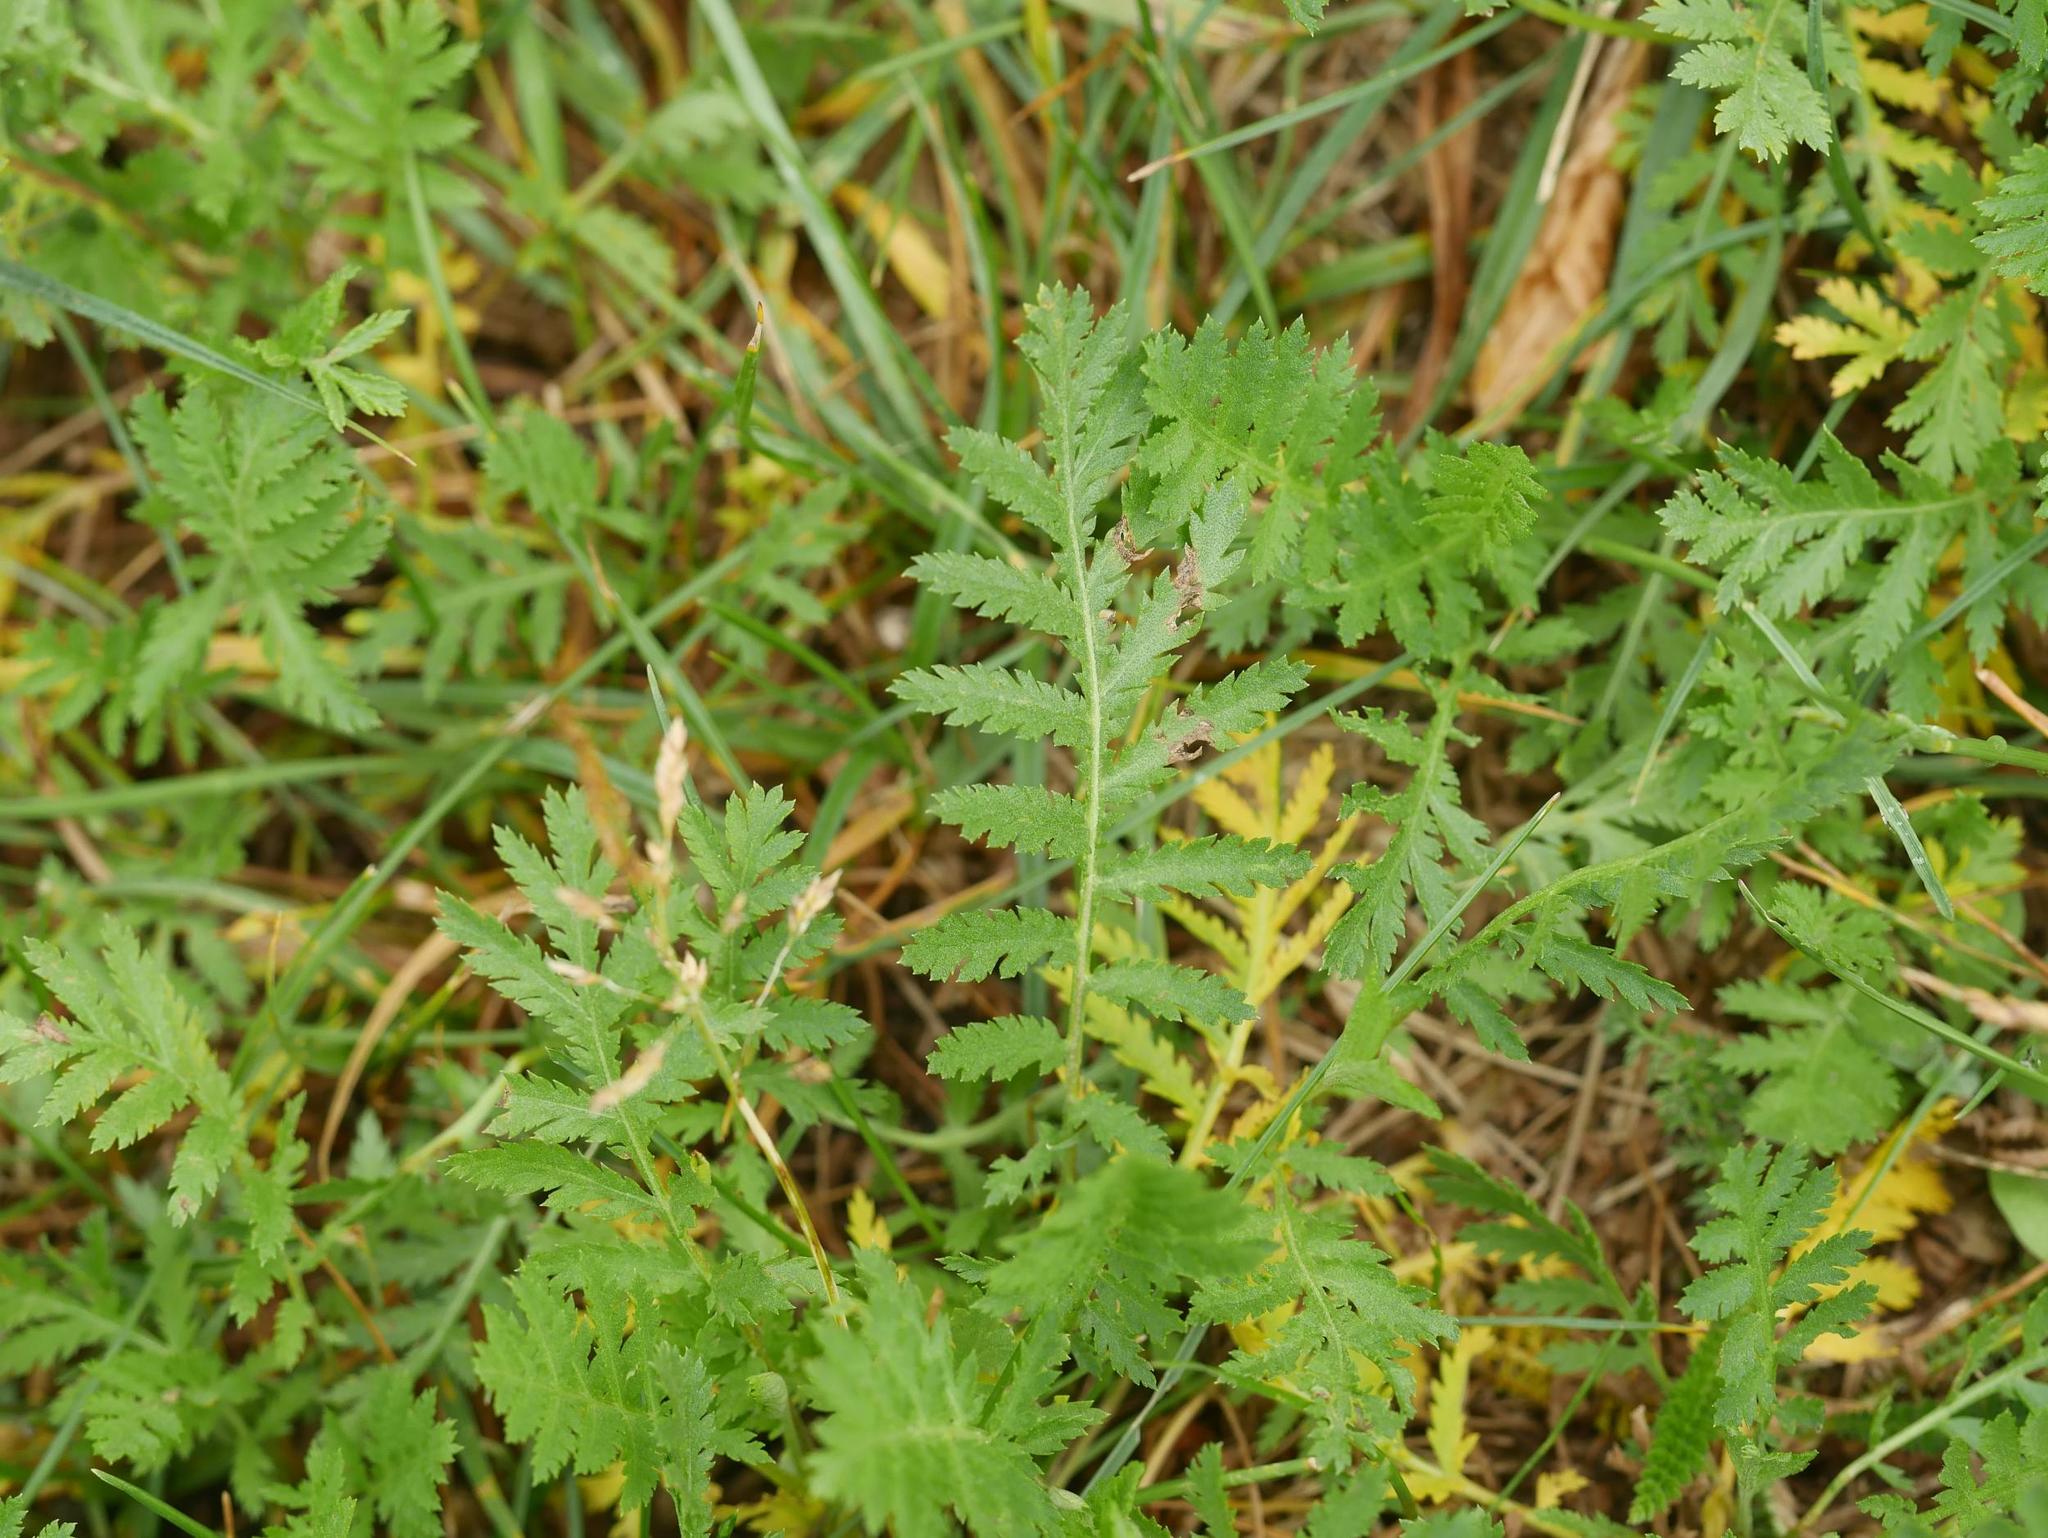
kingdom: Plantae
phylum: Tracheophyta
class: Magnoliopsida
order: Asterales
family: Asteraceae
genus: Tanacetum
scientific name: Tanacetum vulgare
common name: Common tansy
